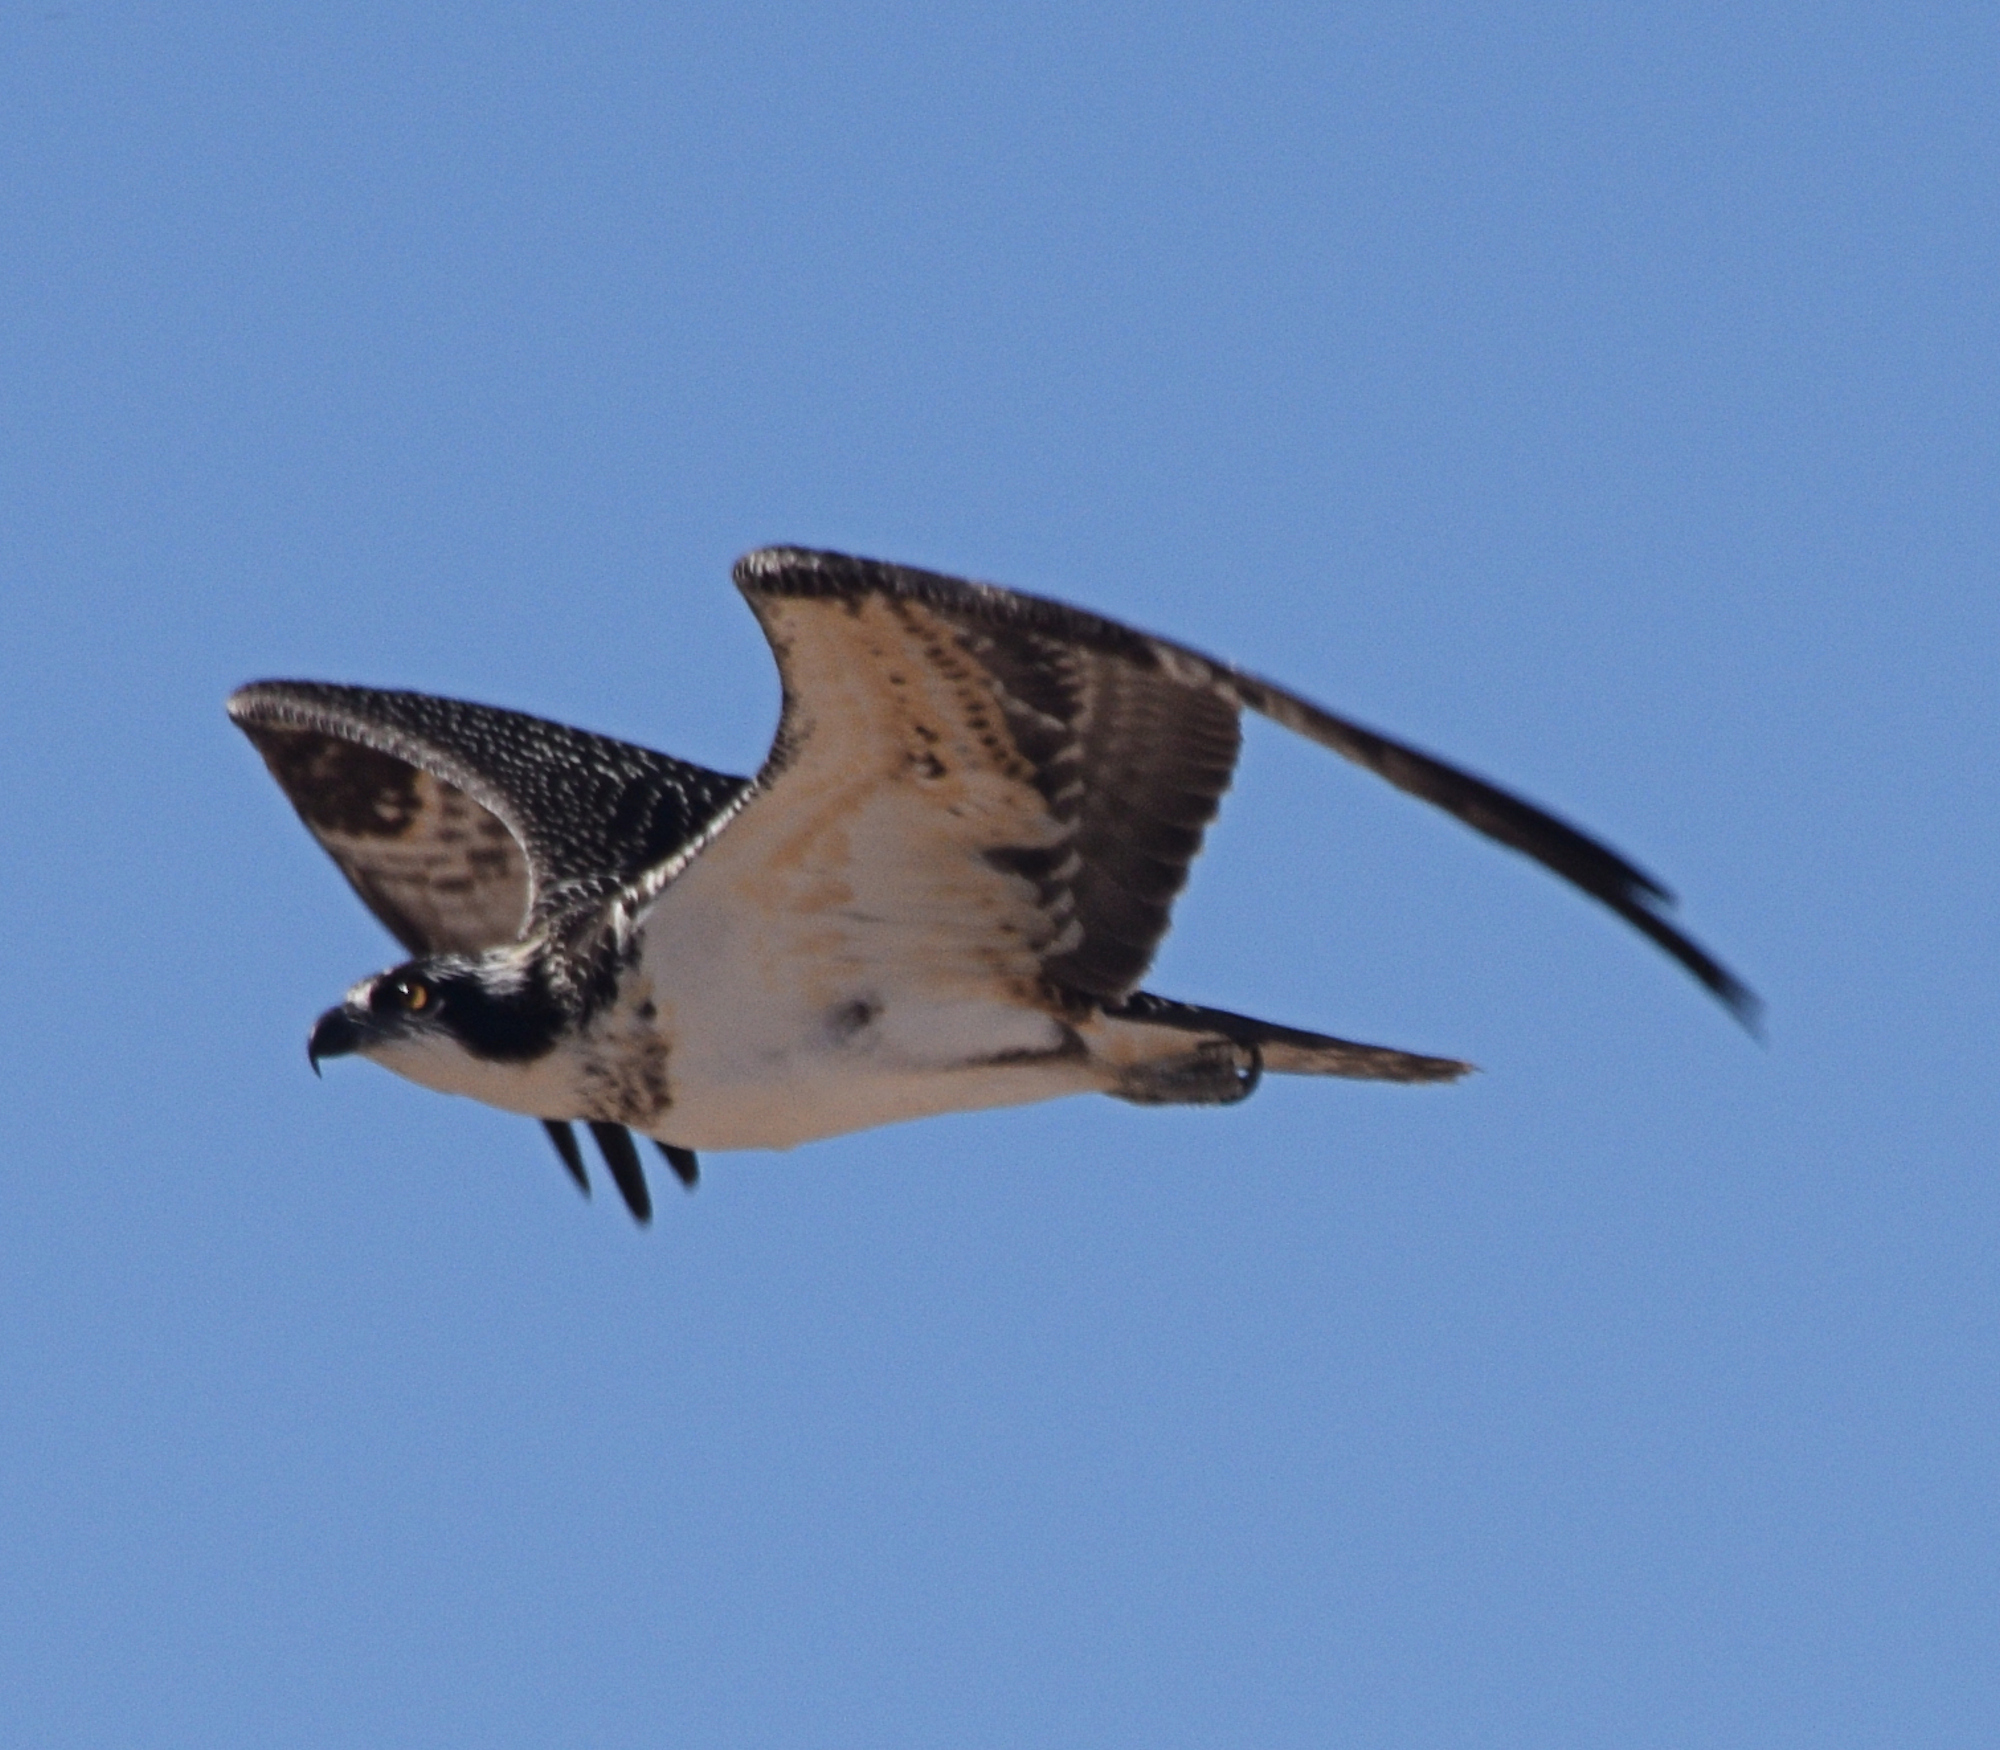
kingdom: Animalia
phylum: Chordata
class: Aves
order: Accipitriformes
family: Pandionidae
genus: Pandion
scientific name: Pandion haliaetus
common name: Osprey
